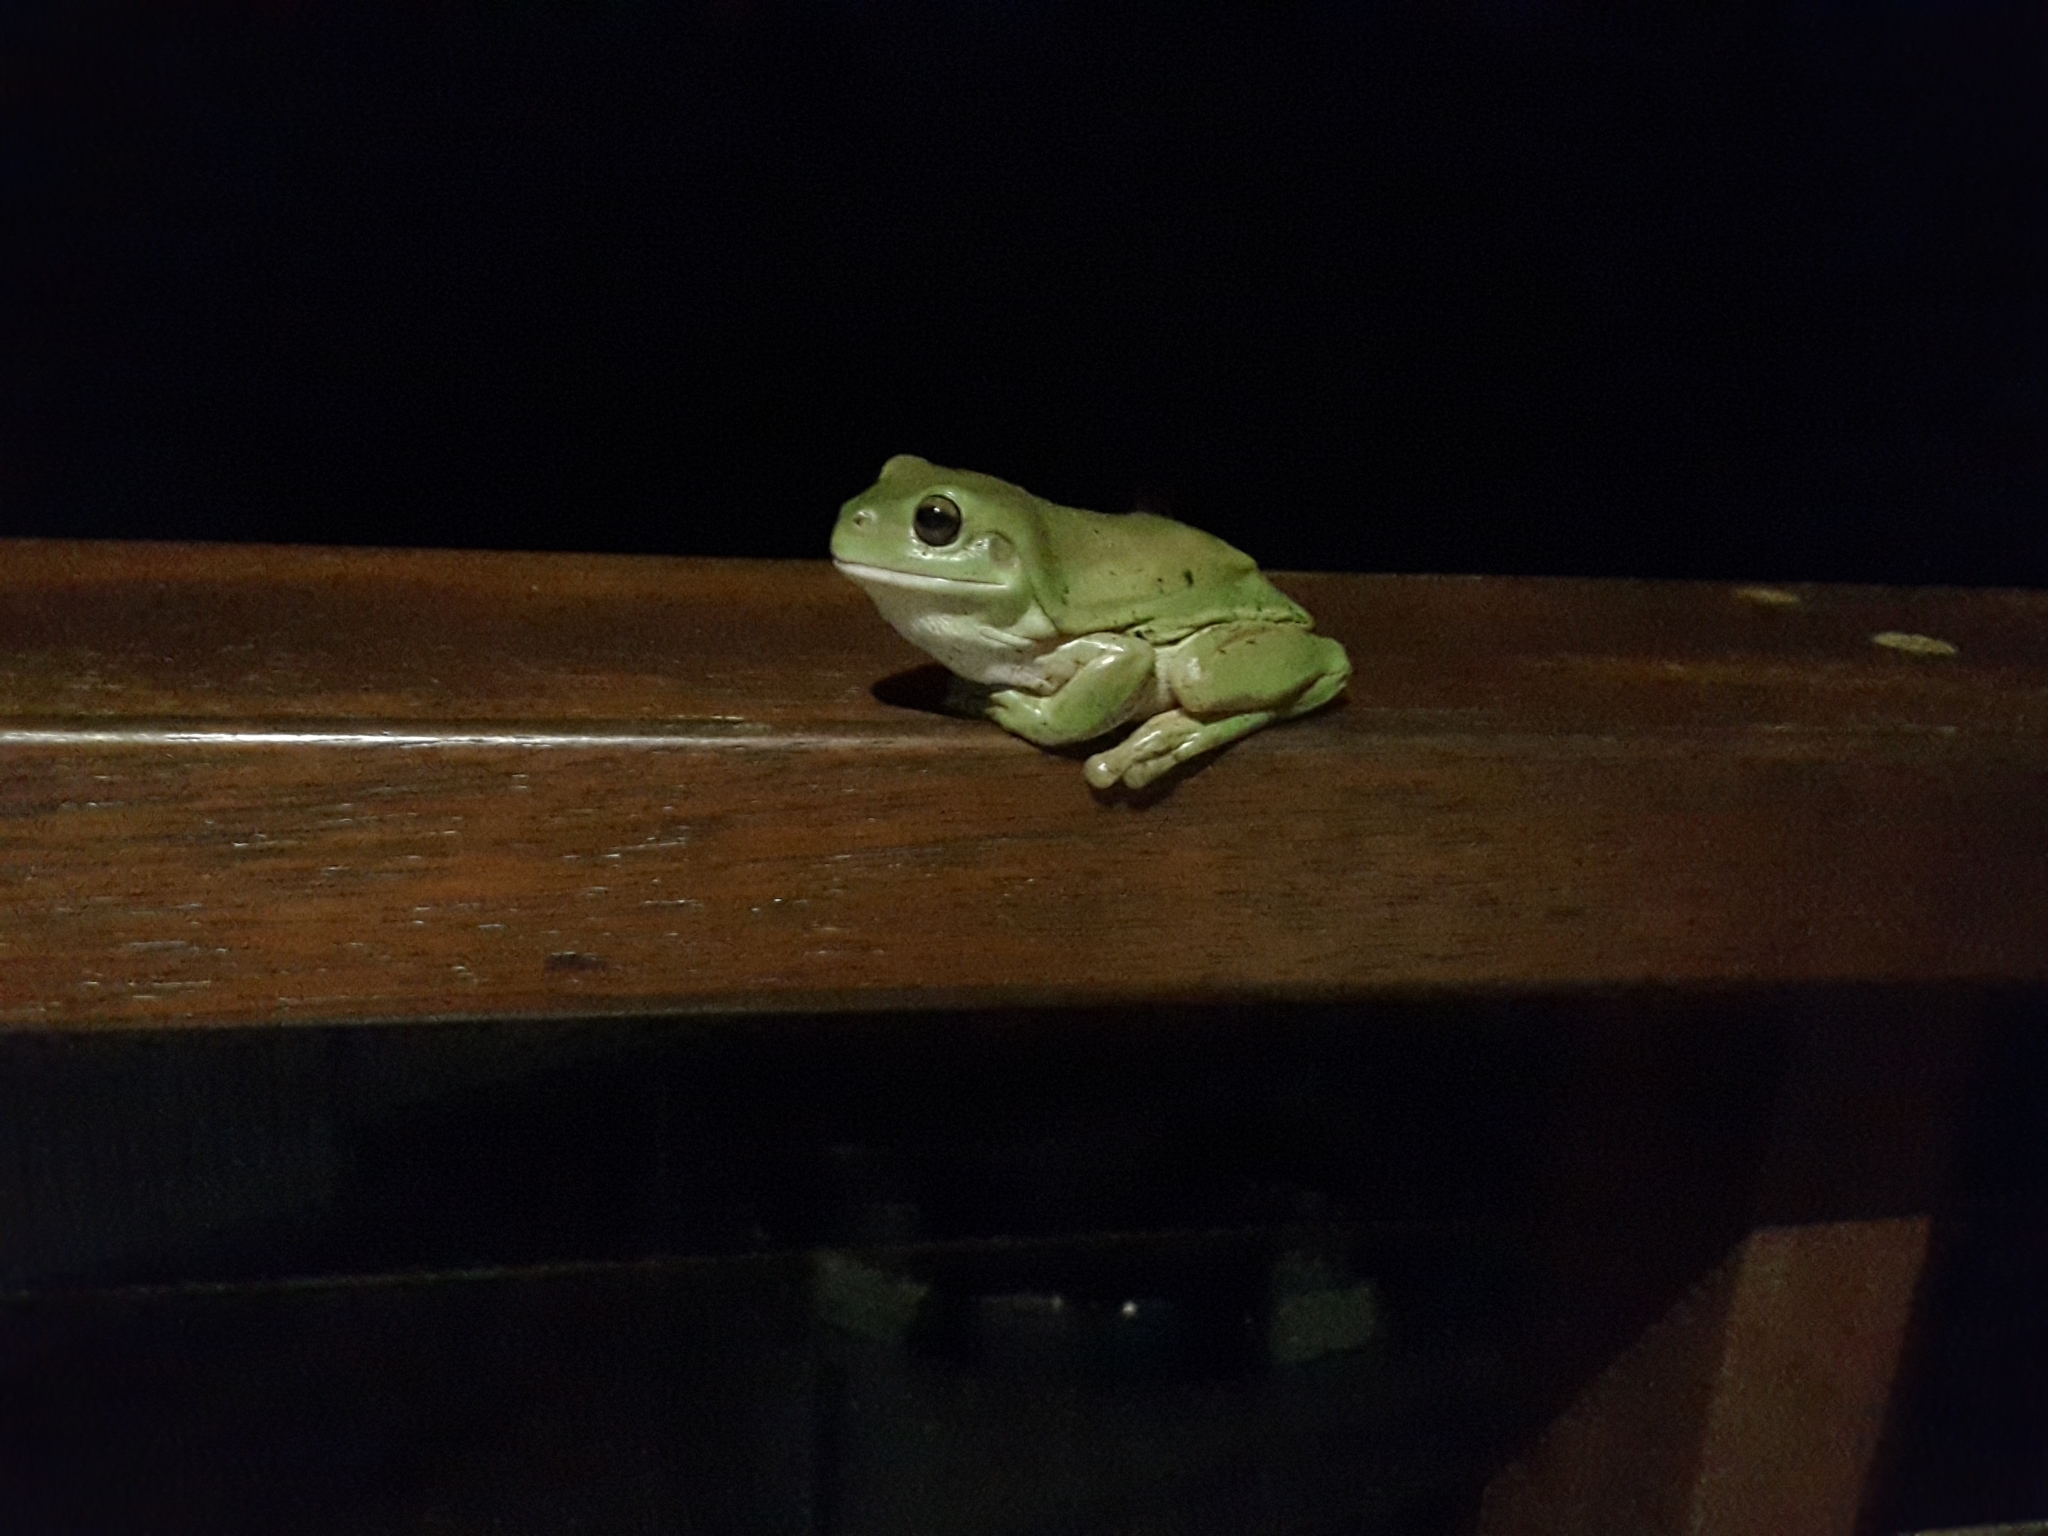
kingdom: Animalia
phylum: Chordata
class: Amphibia
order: Anura
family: Pelodryadidae
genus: Ranoidea
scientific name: Ranoidea caerulea
